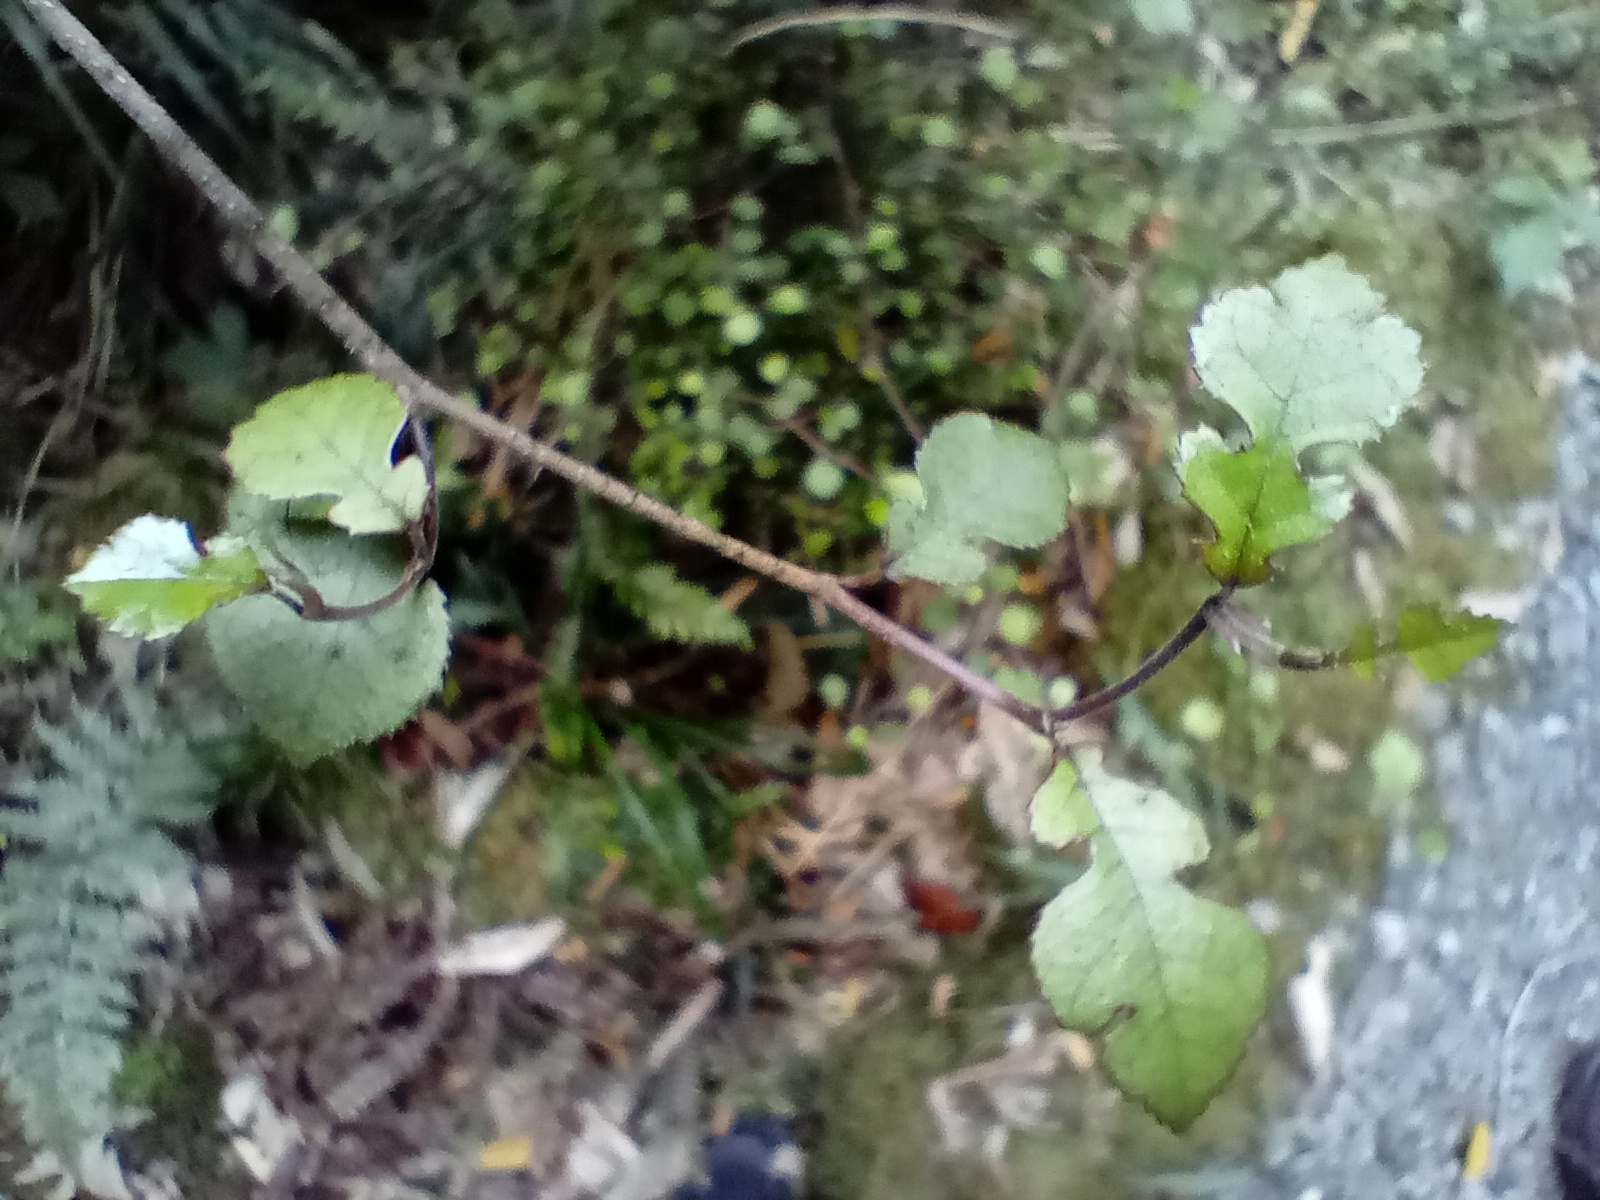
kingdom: Plantae
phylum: Tracheophyta
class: Magnoliopsida
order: Rosales
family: Moraceae
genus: Paratrophis
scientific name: Paratrophis microphylla
